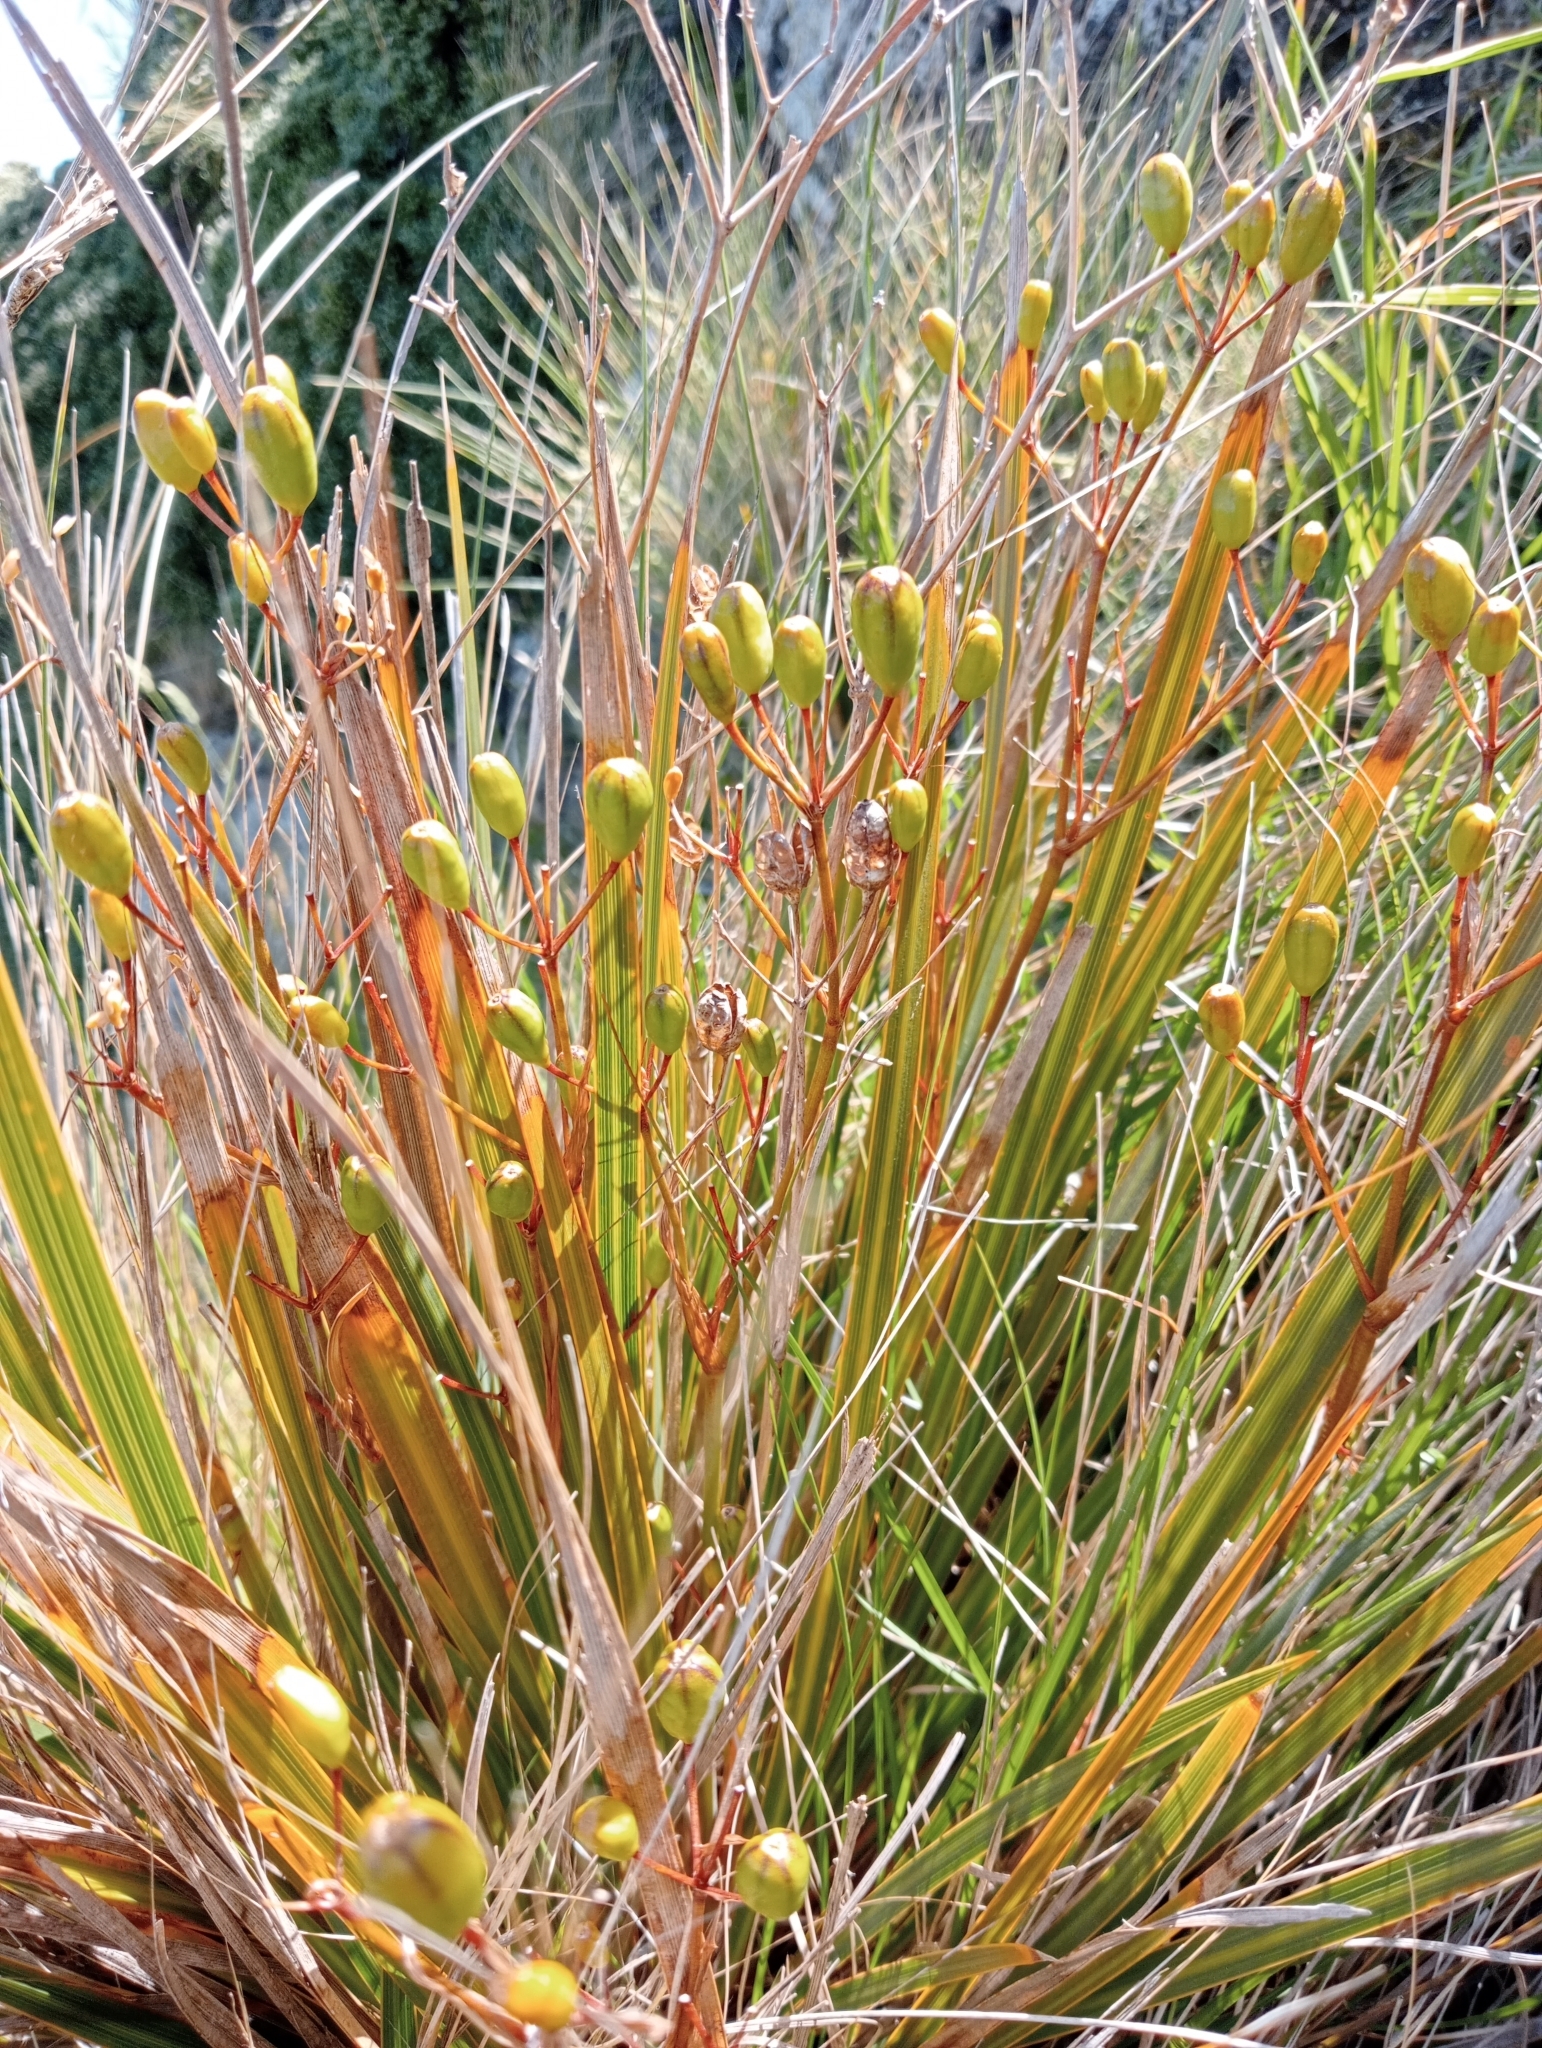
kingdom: Plantae
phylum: Tracheophyta
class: Liliopsida
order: Asparagales
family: Iridaceae
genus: Libertia
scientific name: Libertia ixioides
